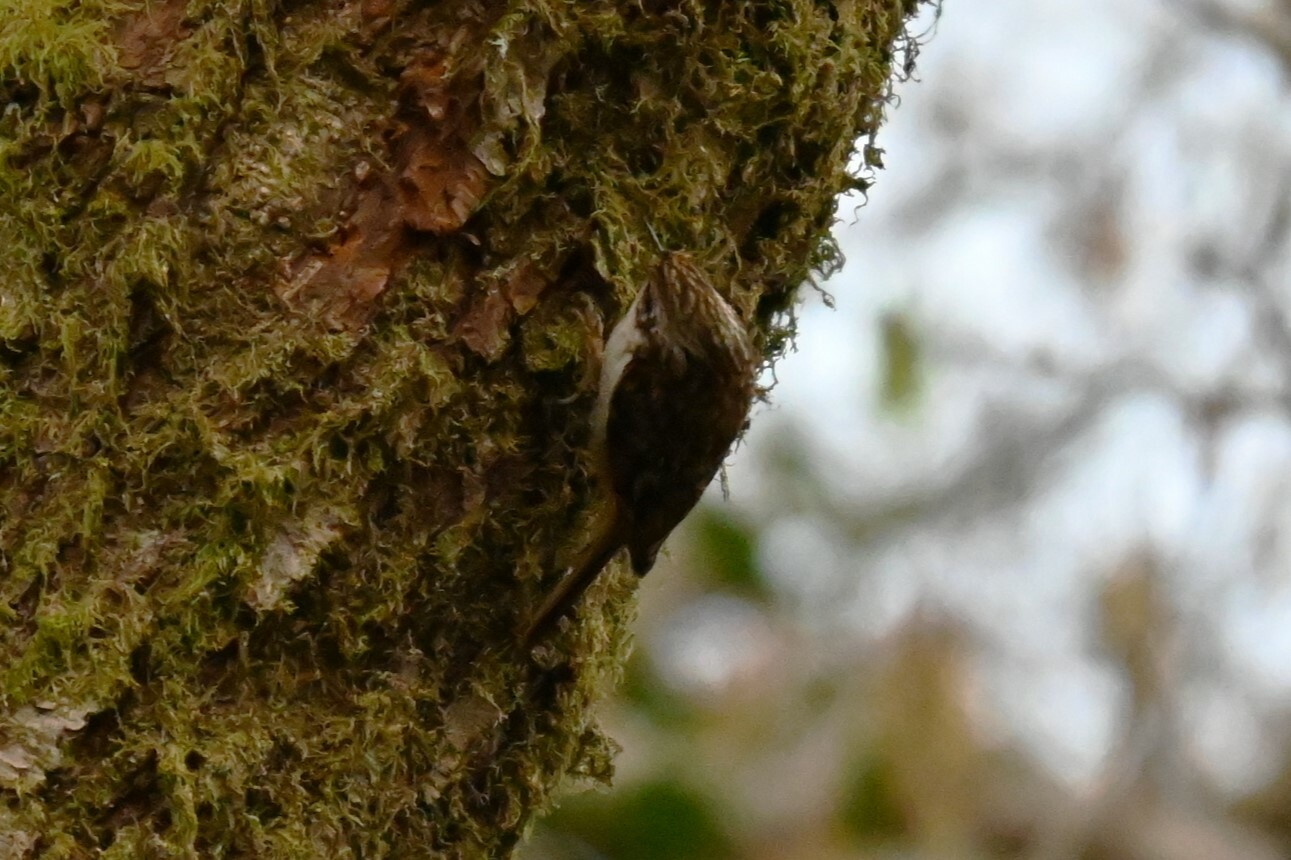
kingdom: Animalia
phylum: Chordata
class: Aves
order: Passeriformes
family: Certhiidae
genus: Certhia
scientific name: Certhia familiaris
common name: Eurasian treecreeper
